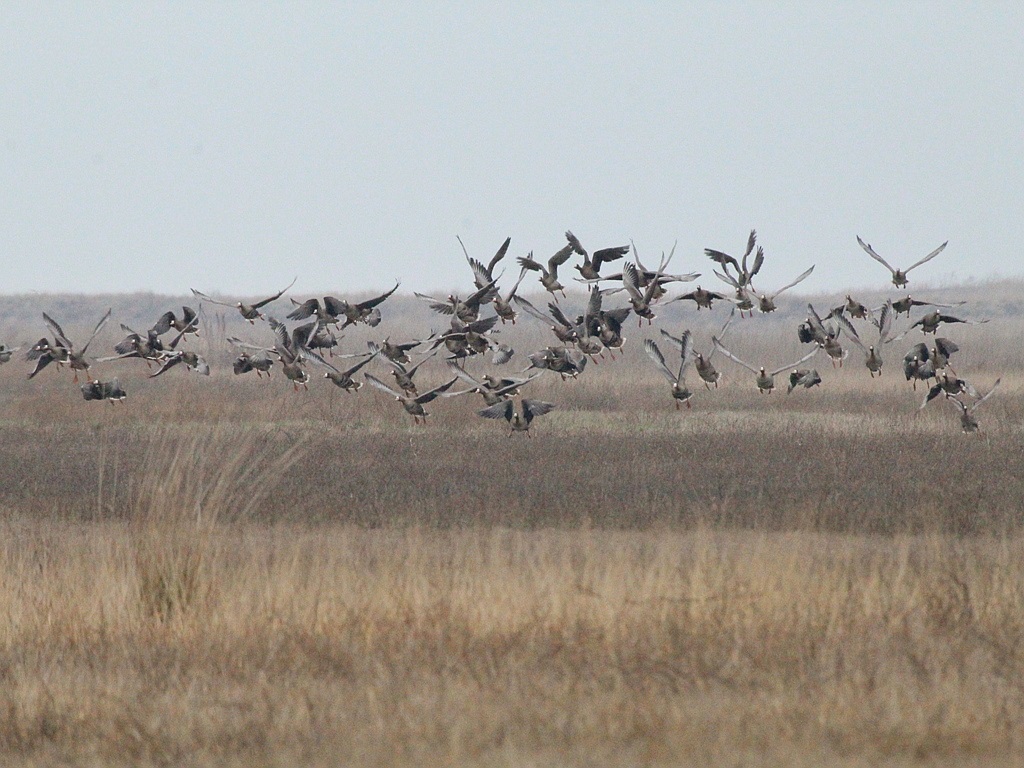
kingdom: Animalia
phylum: Chordata
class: Aves
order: Anseriformes
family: Anatidae
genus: Anser
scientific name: Anser albifrons
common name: Greater white-fronted goose
